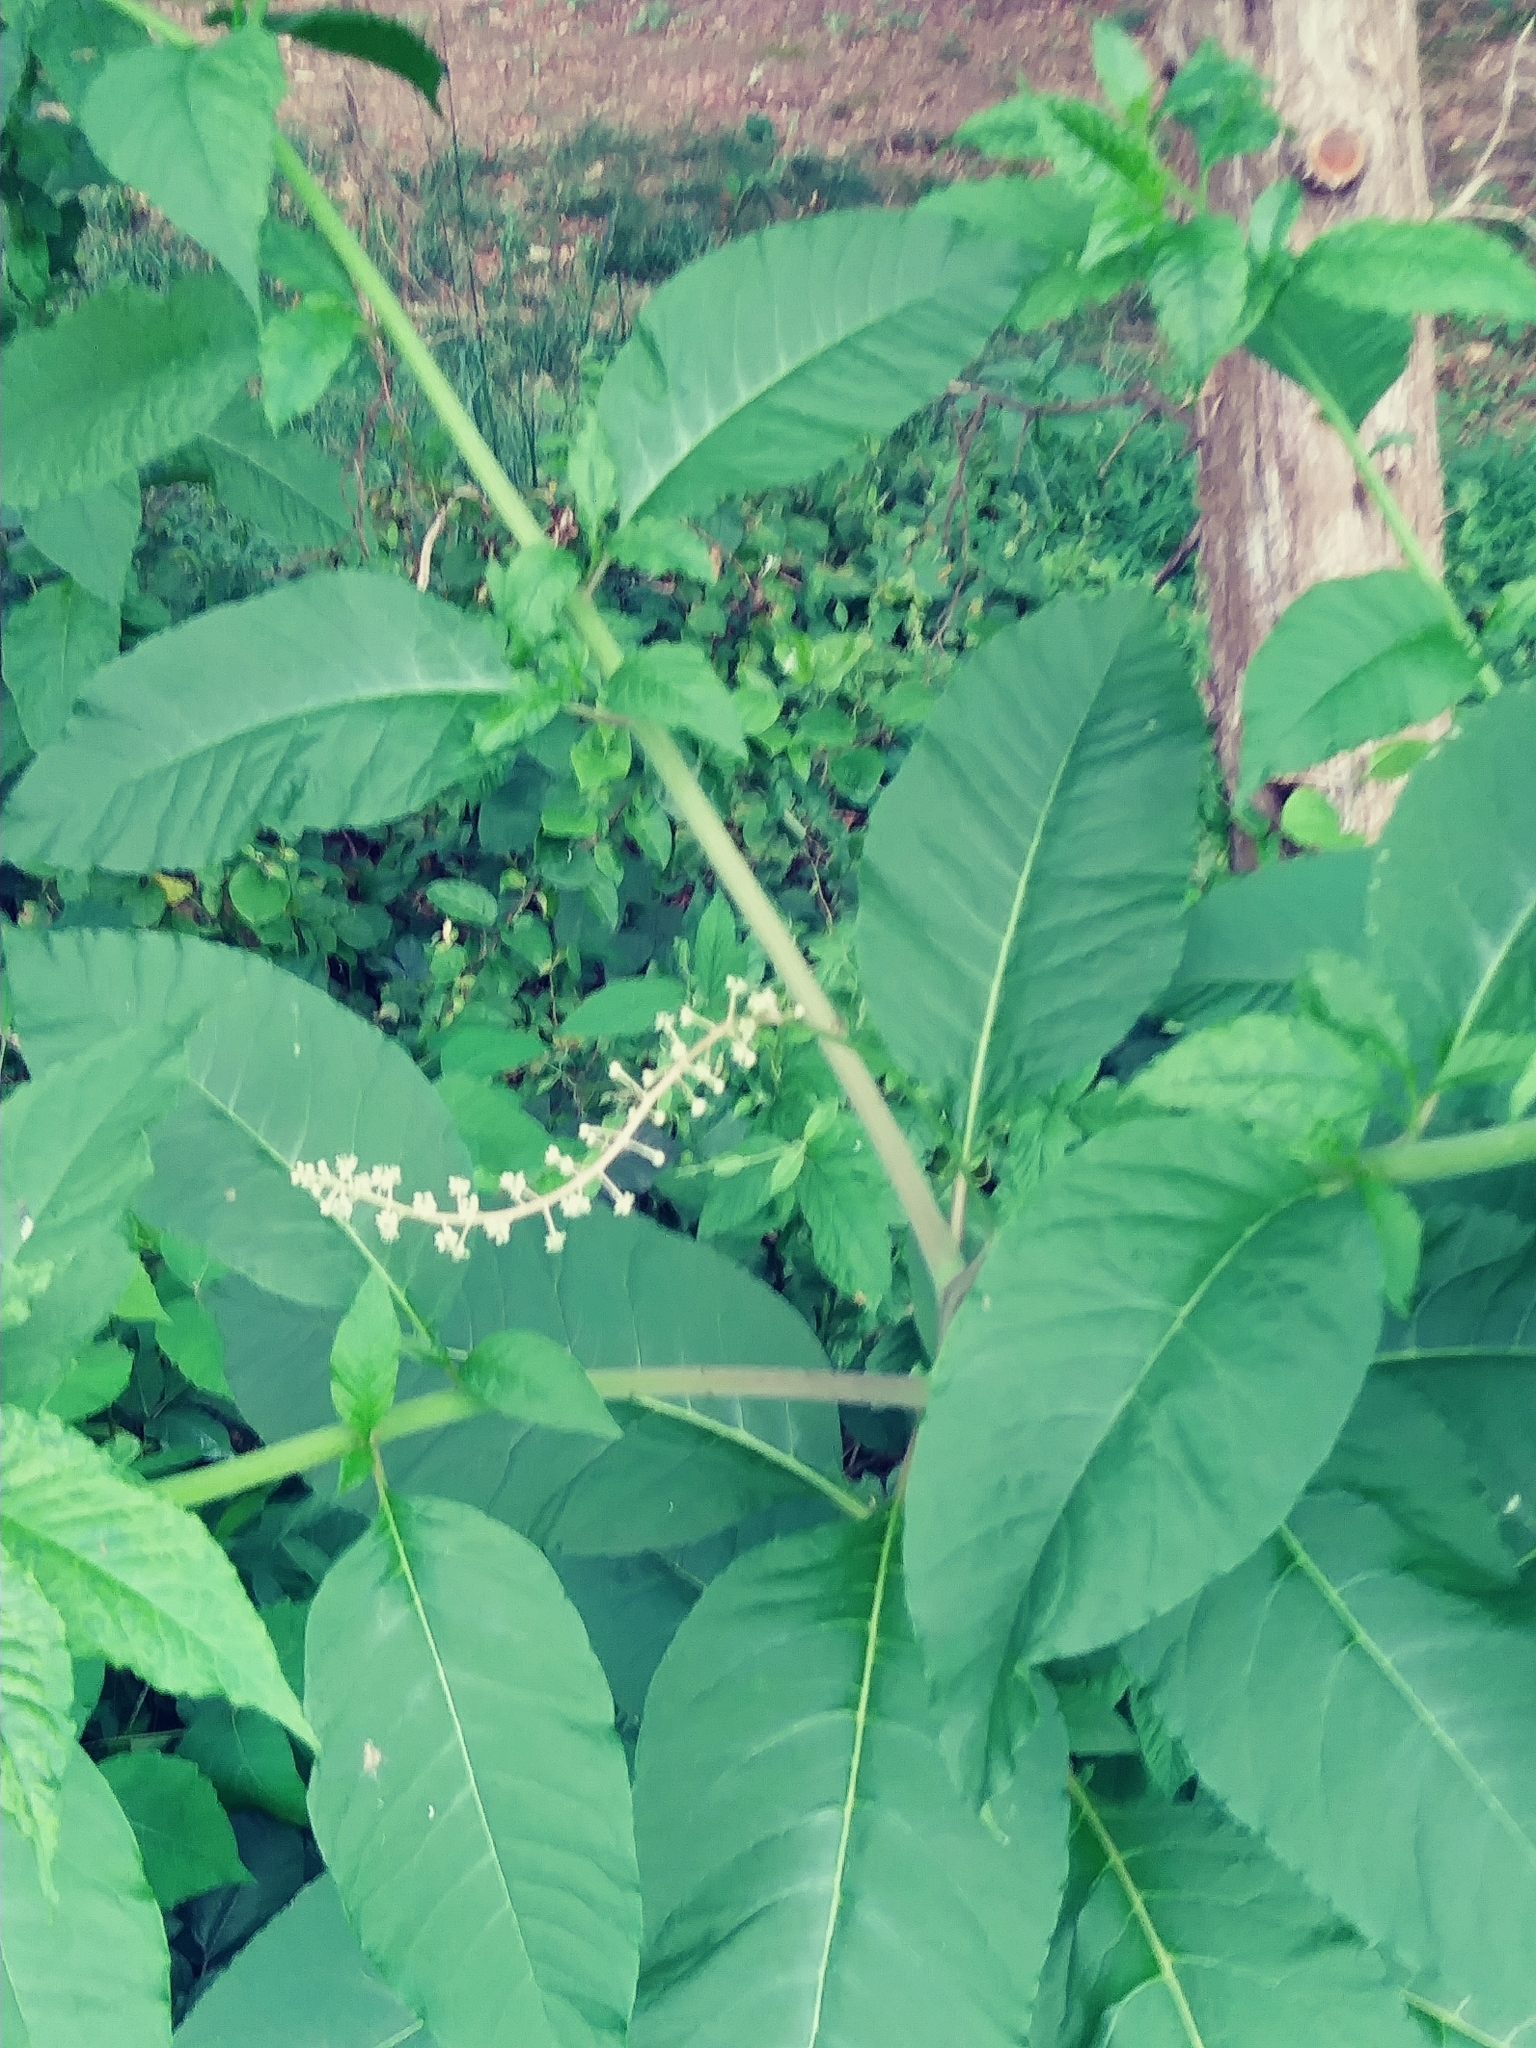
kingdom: Plantae
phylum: Tracheophyta
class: Magnoliopsida
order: Caryophyllales
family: Phytolaccaceae
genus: Phytolacca
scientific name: Phytolacca americana
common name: American pokeweed
